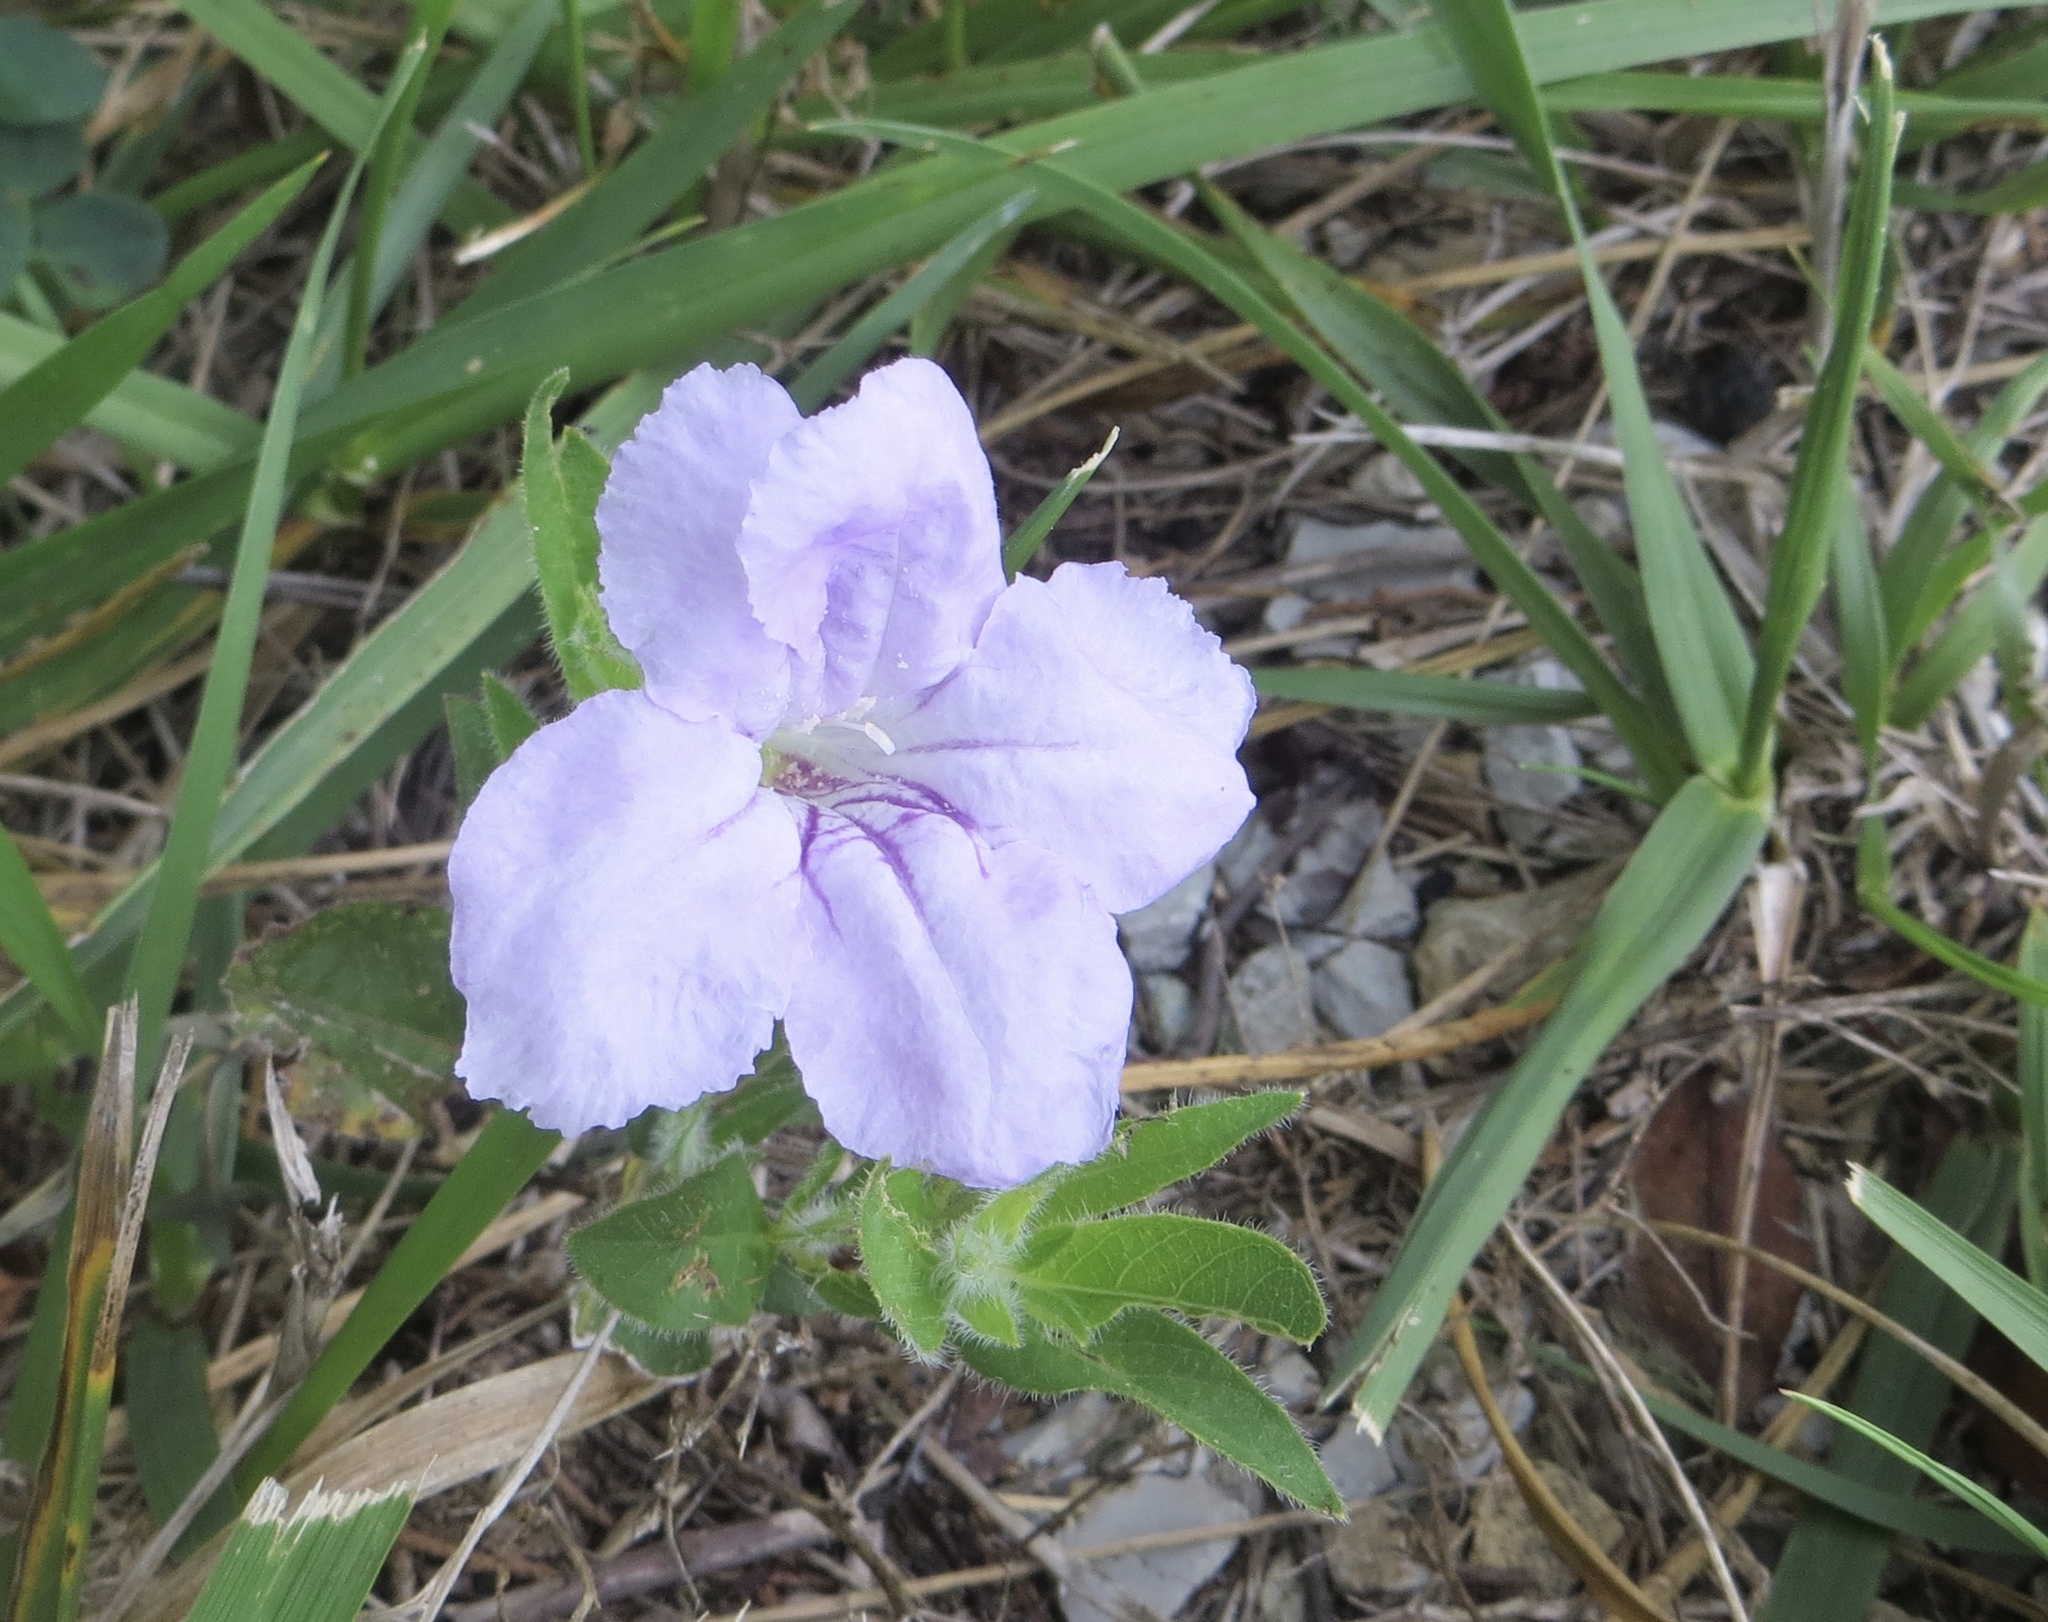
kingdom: Plantae
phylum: Tracheophyta
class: Magnoliopsida
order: Lamiales
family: Acanthaceae
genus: Ruellia
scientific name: Ruellia humilis
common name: Fringe-leaf ruellia
